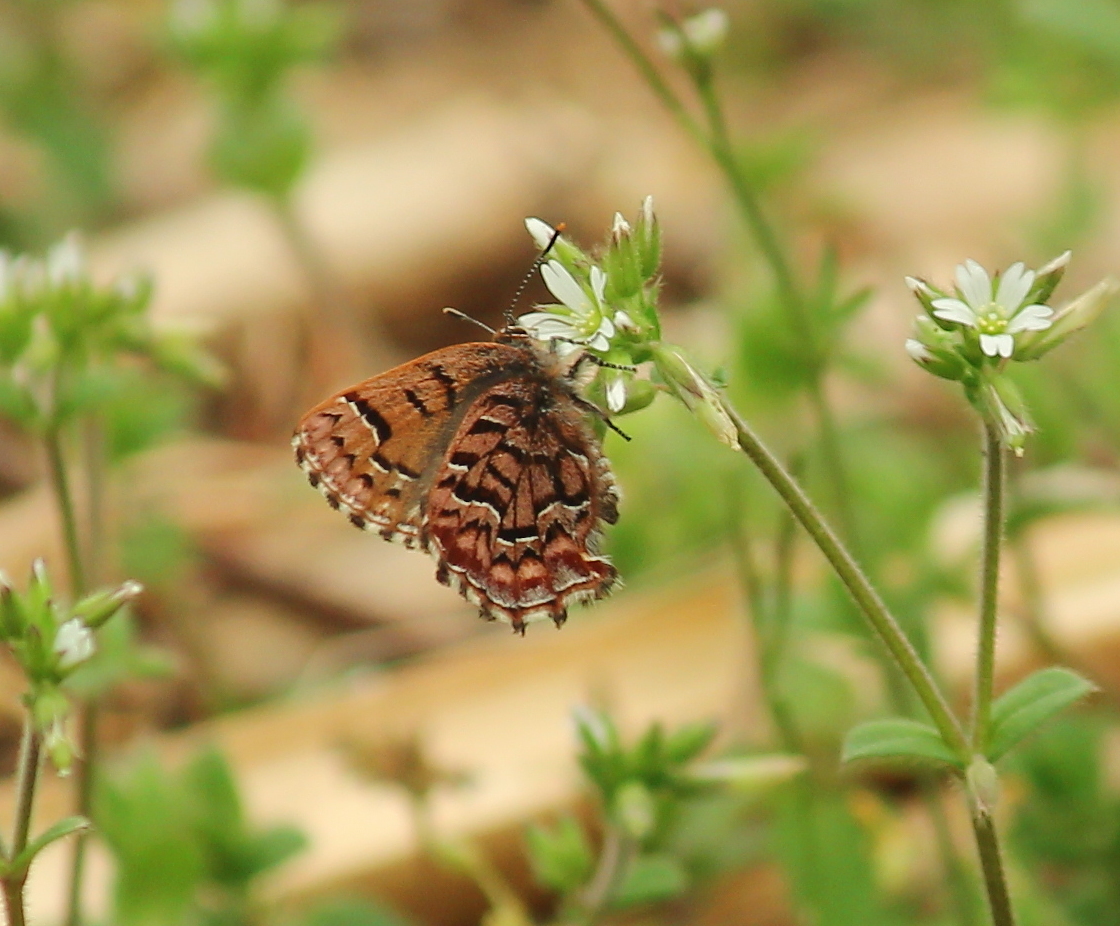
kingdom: Animalia
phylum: Arthropoda
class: Insecta
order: Lepidoptera
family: Lycaenidae
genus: Incisalia
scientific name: Incisalia niphon
